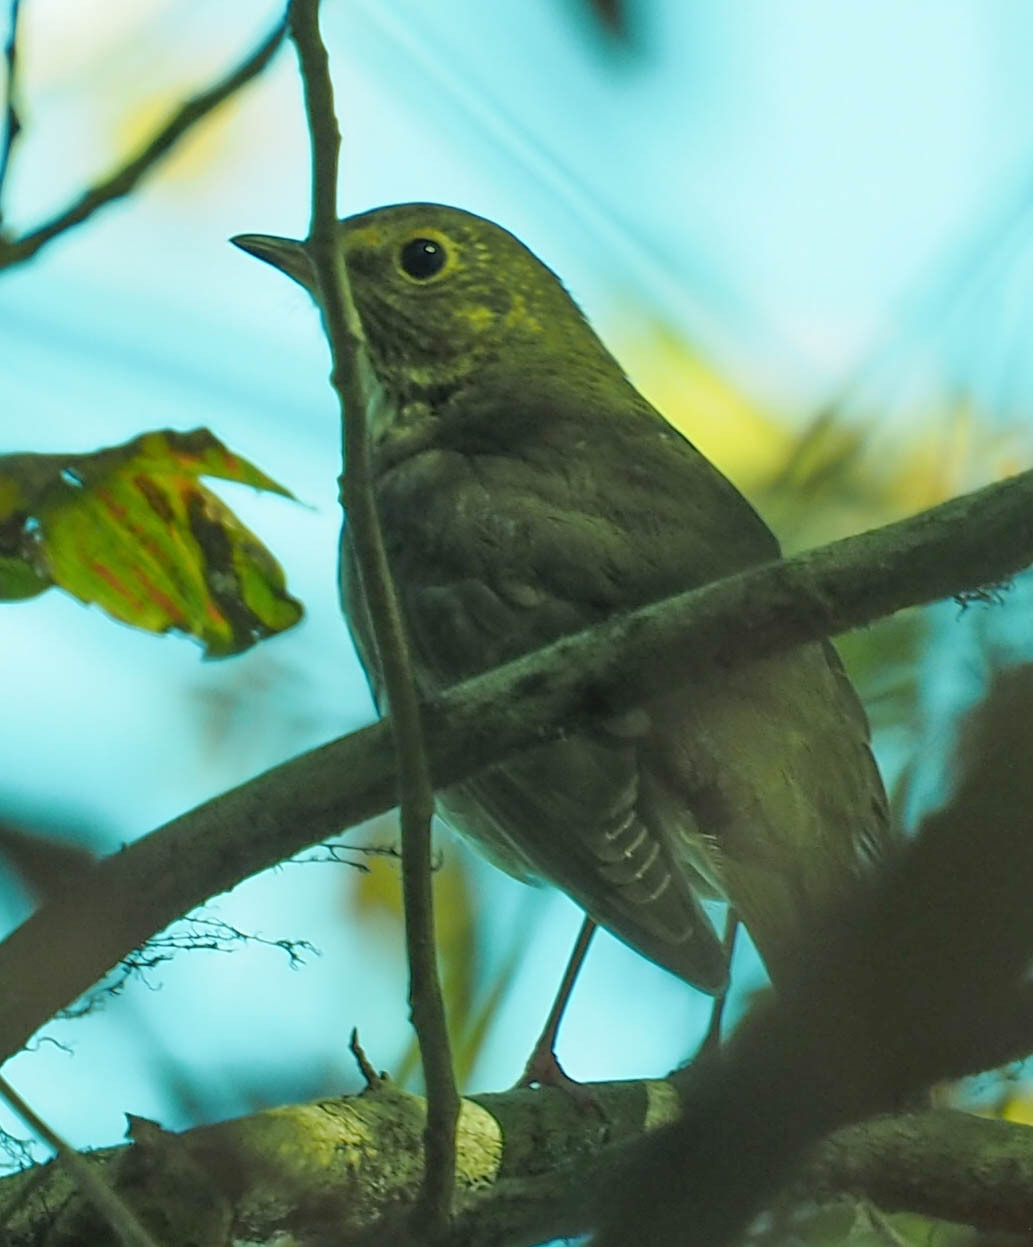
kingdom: Animalia
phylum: Chordata
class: Aves
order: Passeriformes
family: Turdidae
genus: Catharus
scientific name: Catharus ustulatus
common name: Swainson's thrush
